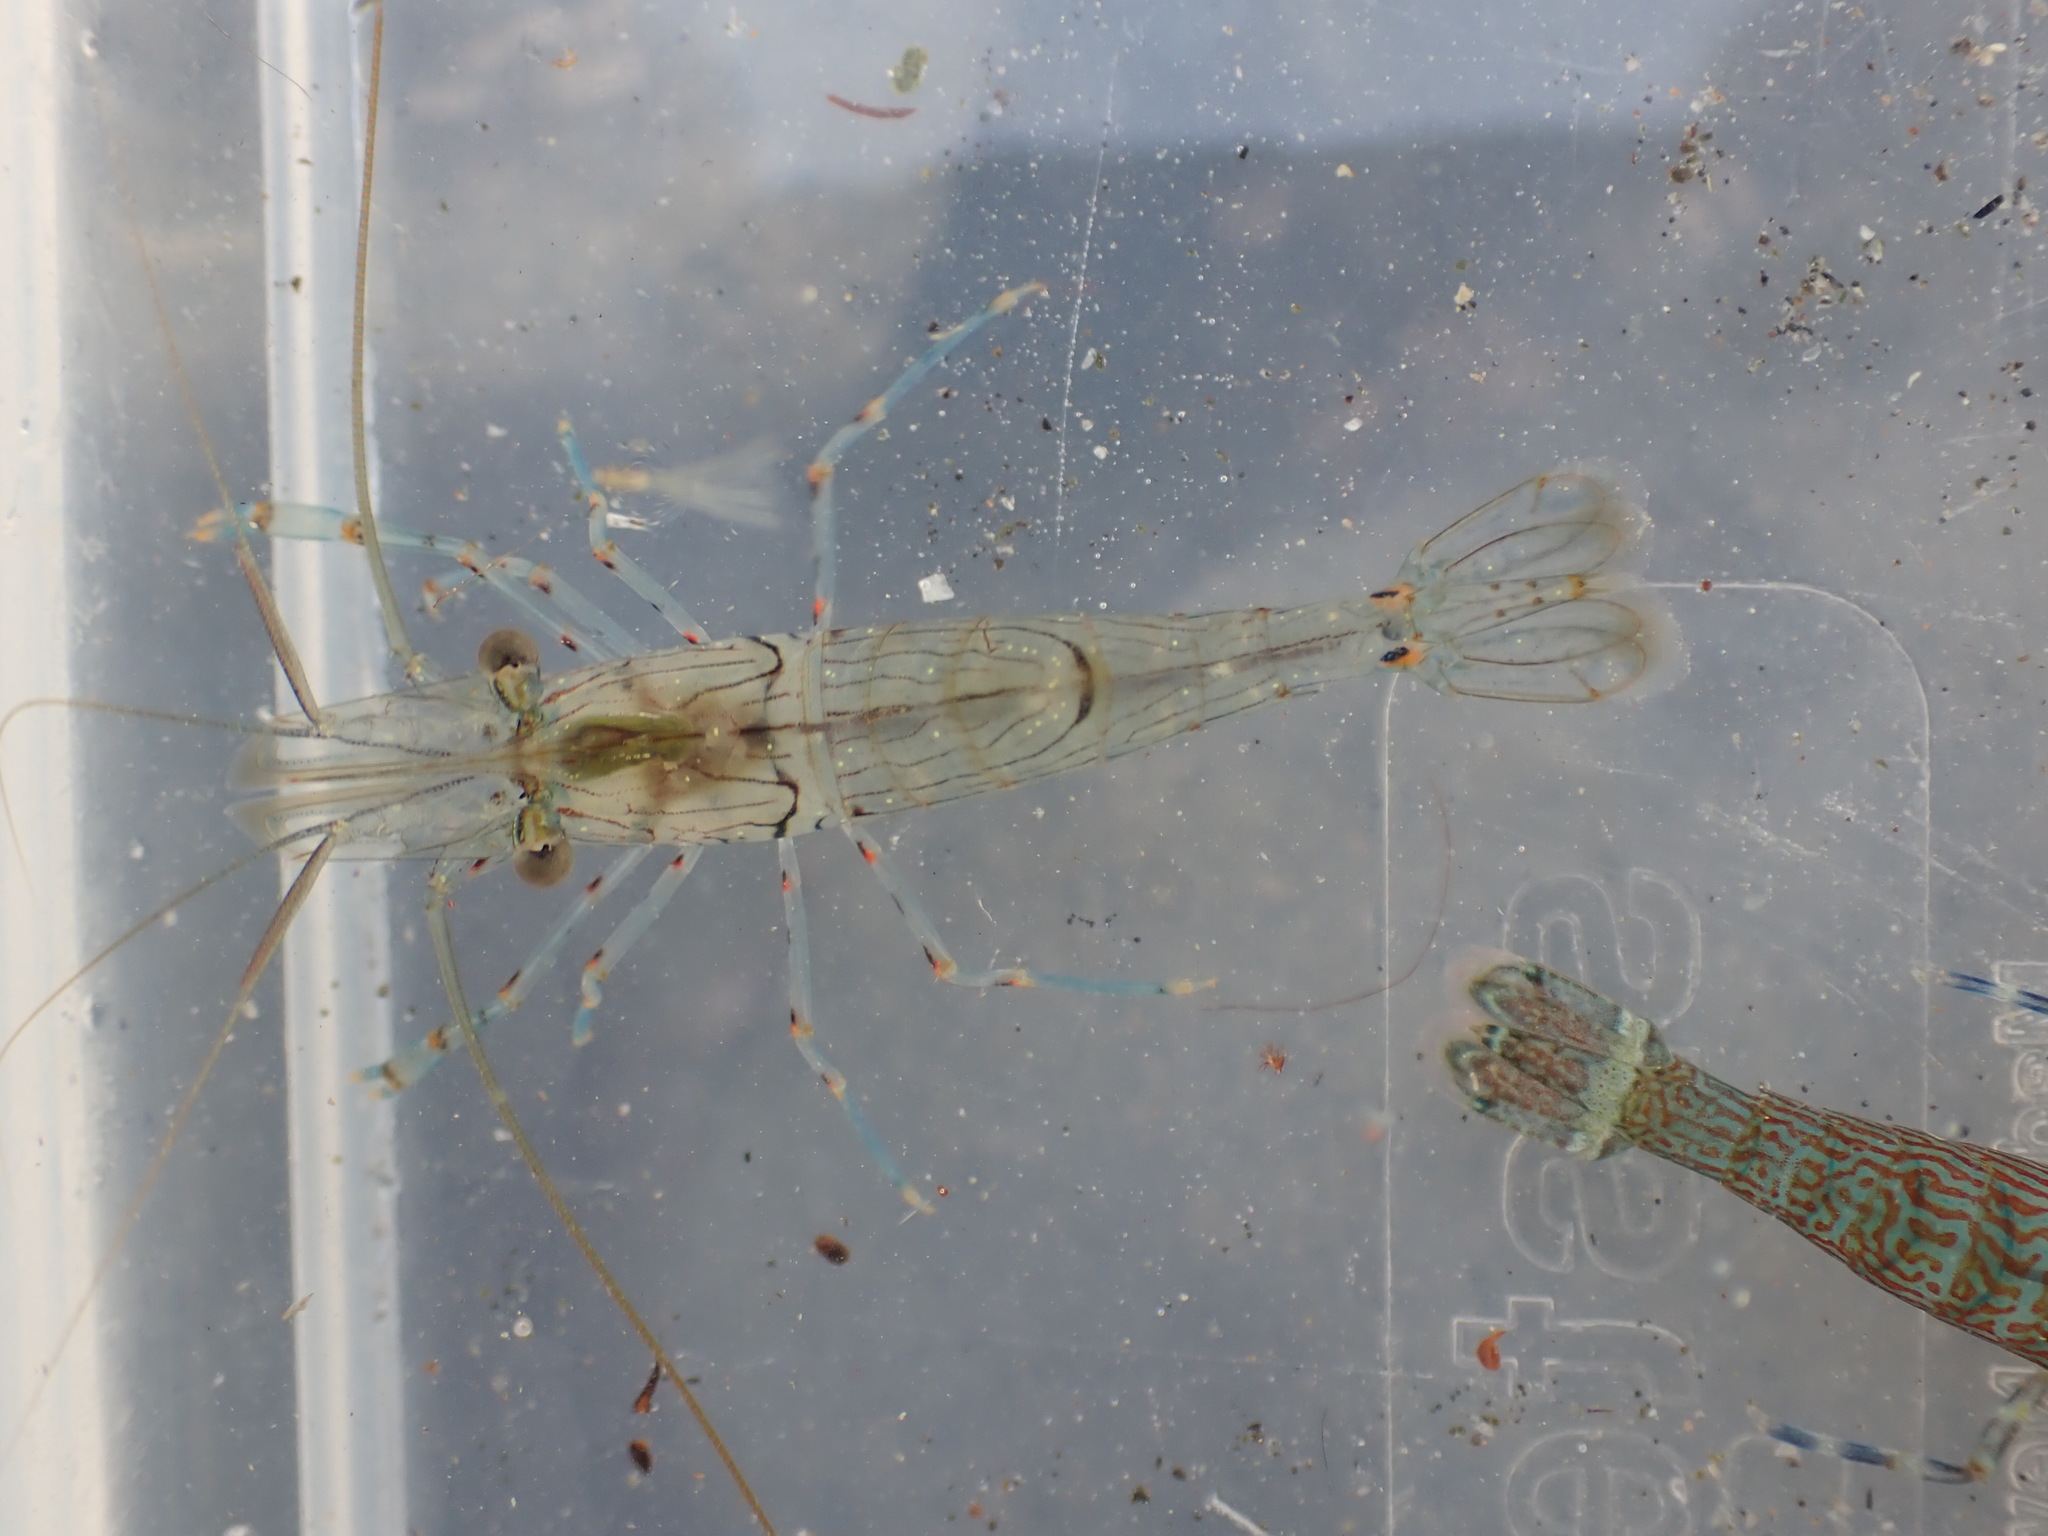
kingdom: Animalia
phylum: Arthropoda
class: Malacostraca
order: Decapoda
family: Palaemonidae
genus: Palaemon
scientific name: Palaemon affinis
